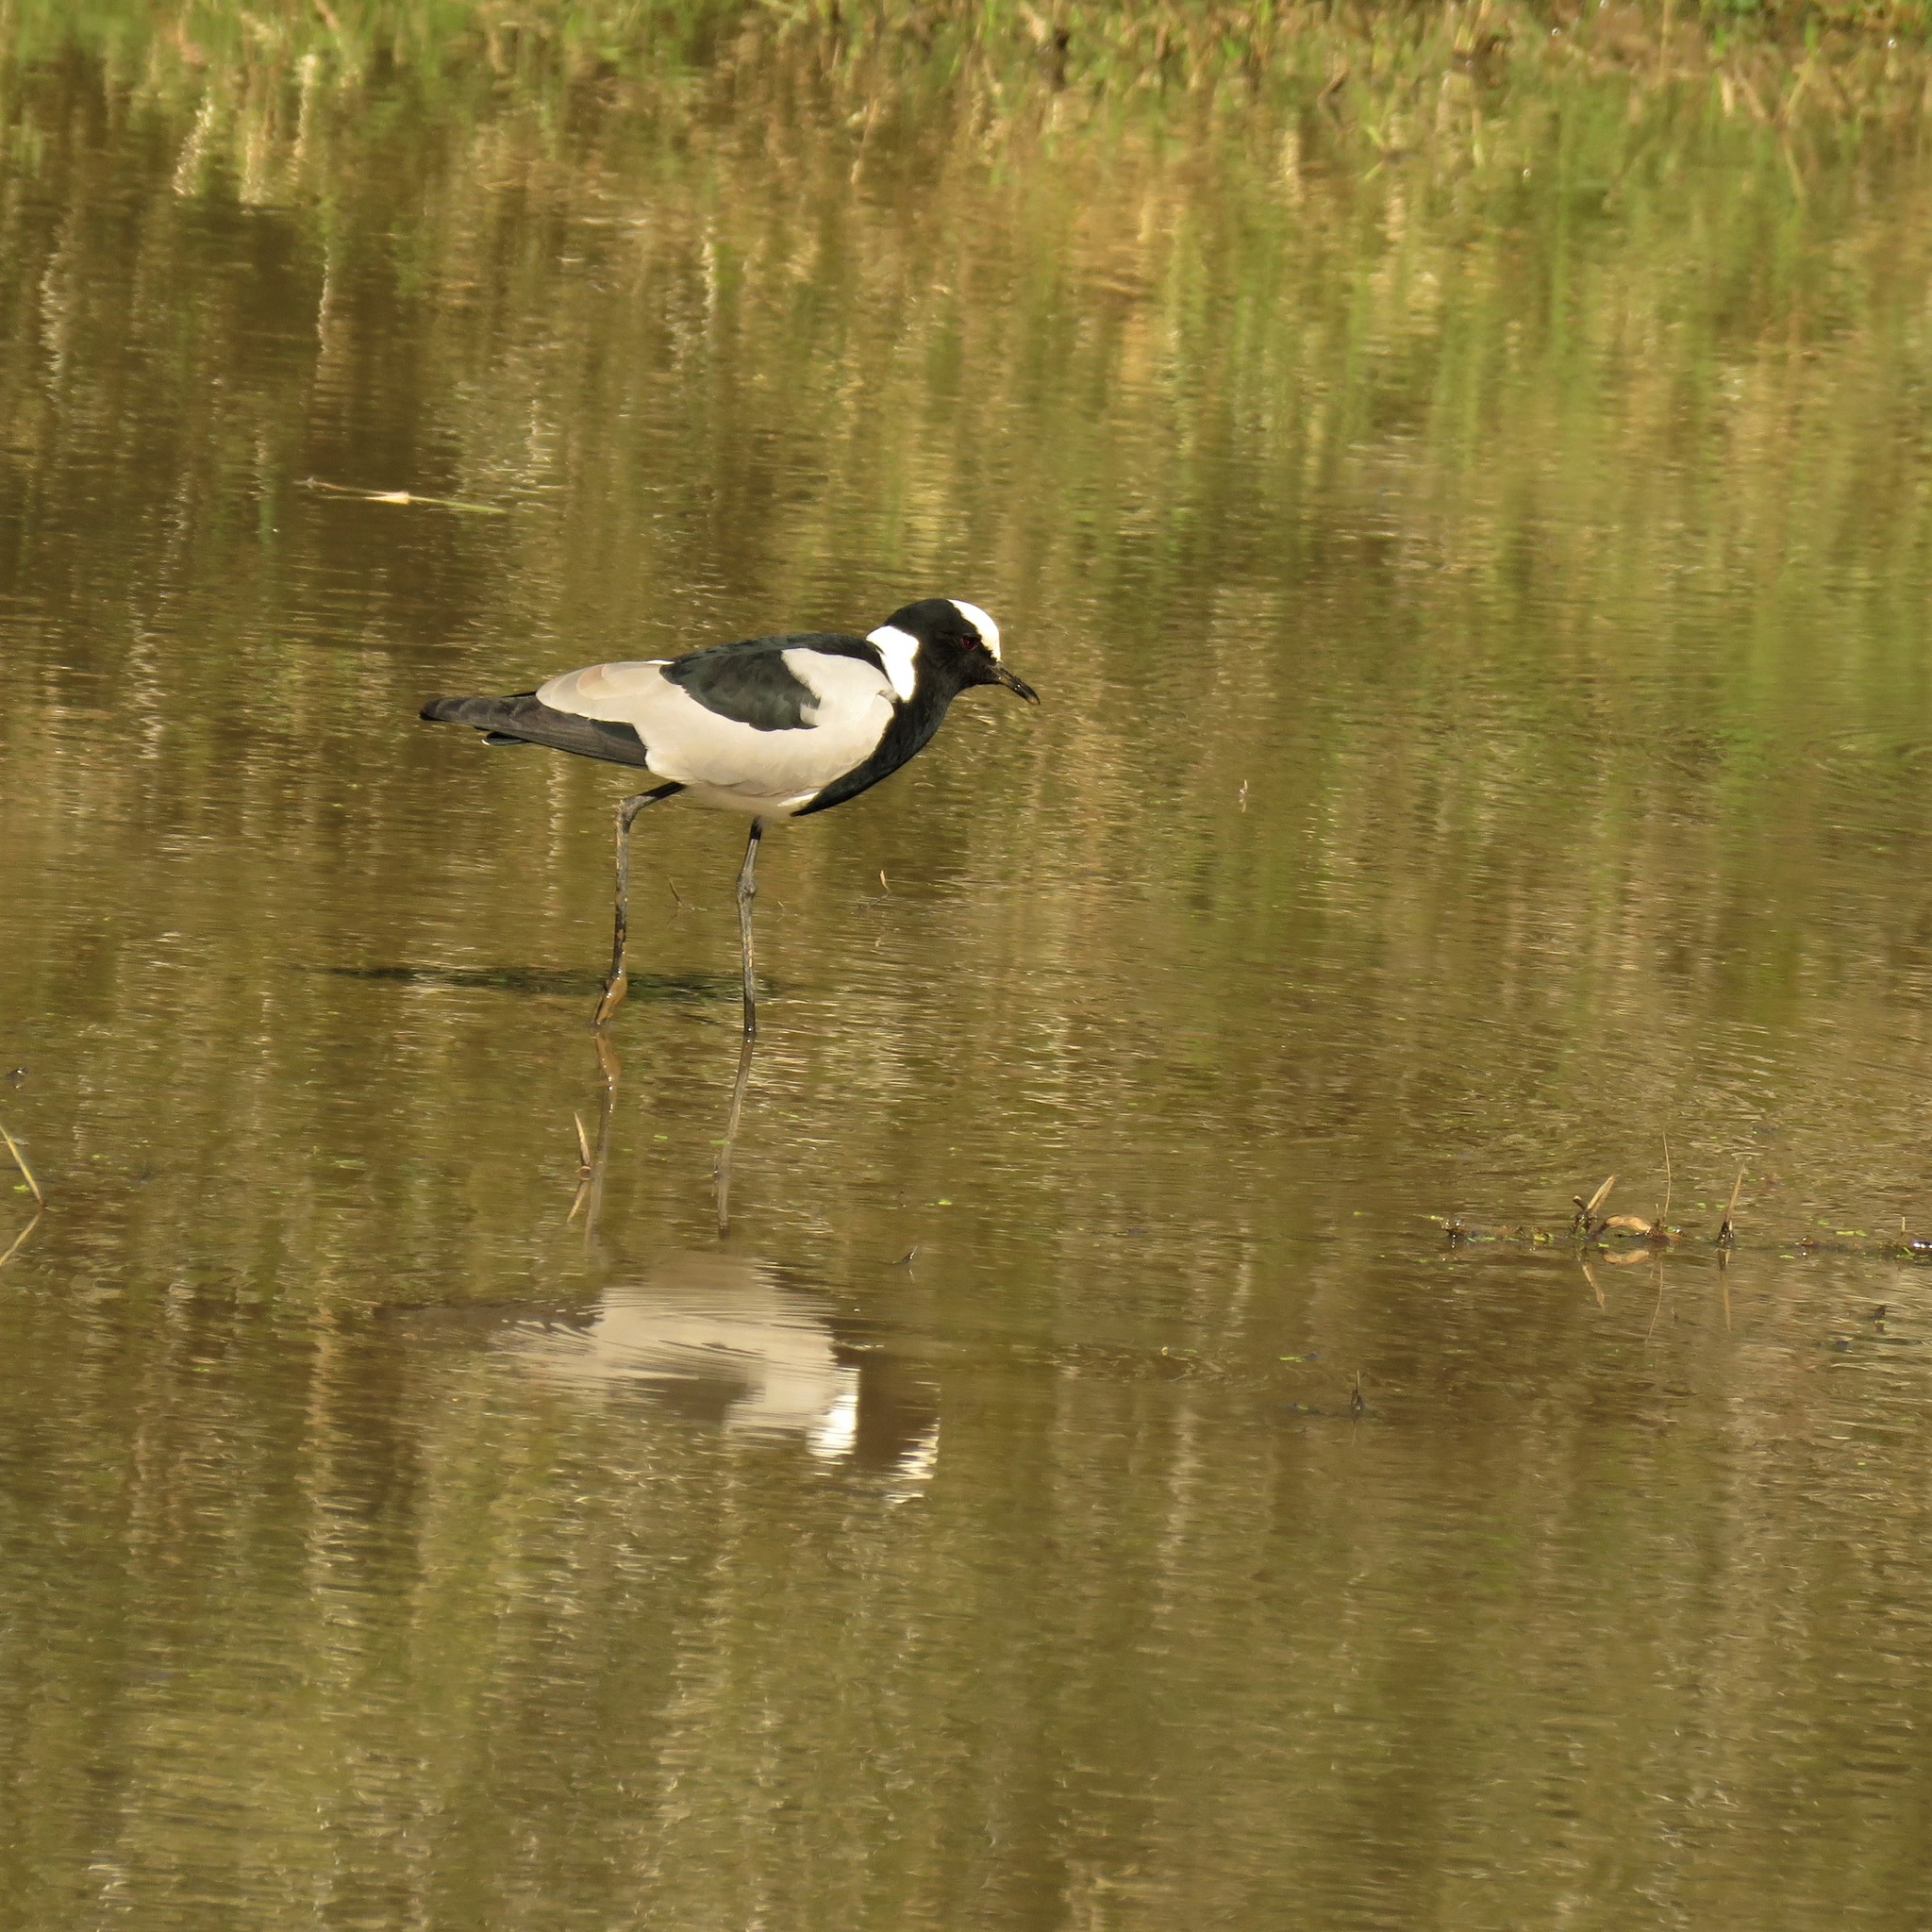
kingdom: Animalia
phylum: Chordata
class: Aves
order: Charadriiformes
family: Charadriidae
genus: Vanellus
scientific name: Vanellus armatus
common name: Blacksmith lapwing
